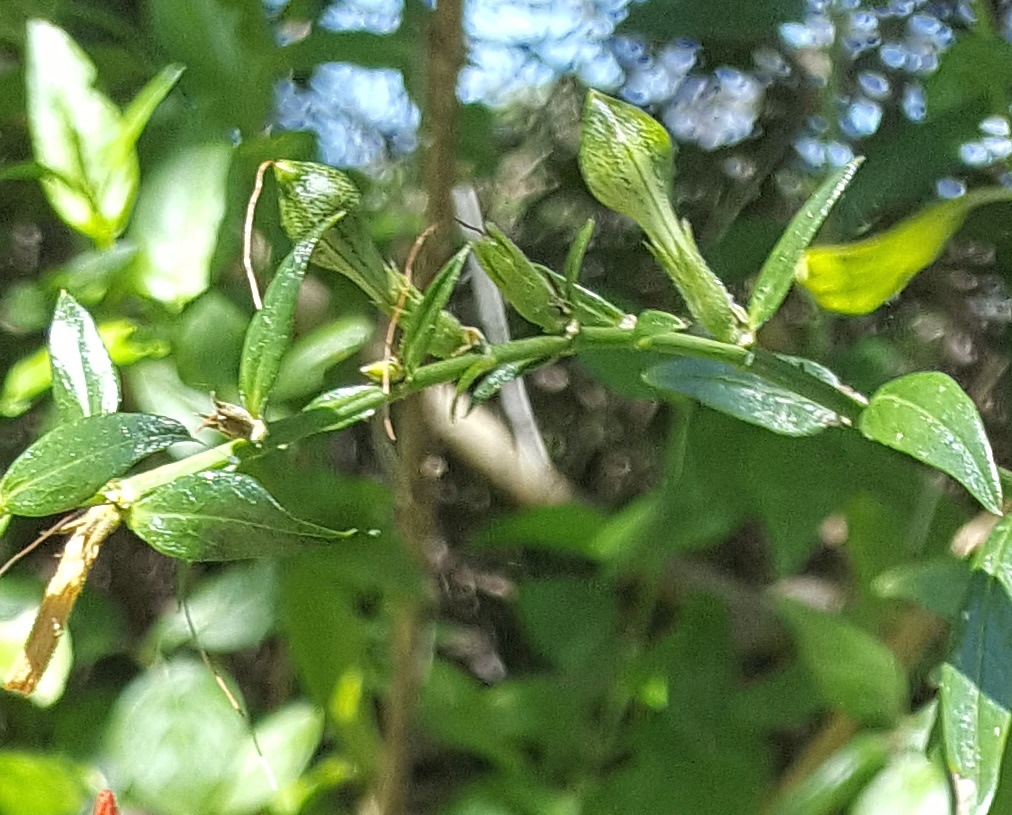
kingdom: Plantae
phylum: Tracheophyta
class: Magnoliopsida
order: Lamiales
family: Acanthaceae
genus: Anisacanthus
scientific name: Anisacanthus quadrifidus
